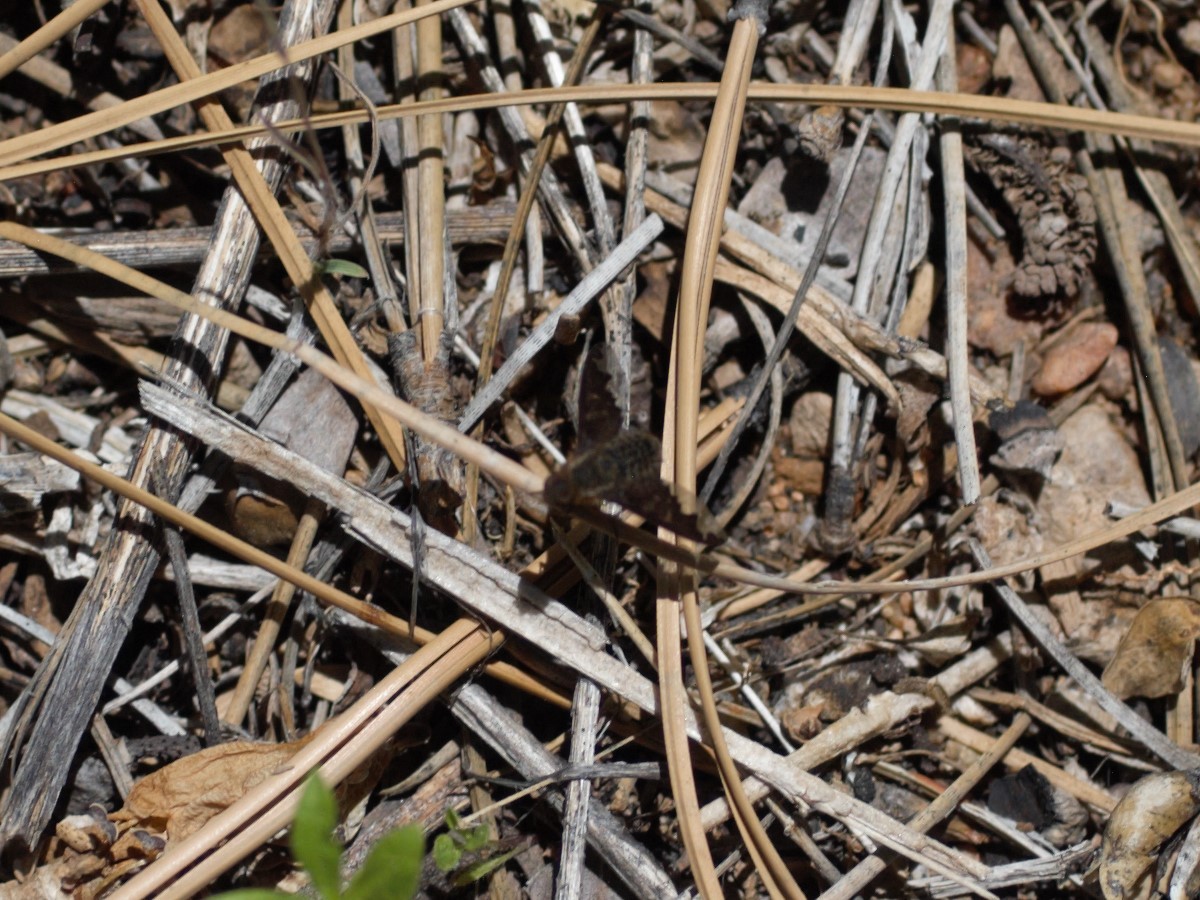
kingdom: Animalia
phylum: Arthropoda
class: Insecta
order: Diptera
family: Bombyliidae
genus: Hemipenthes
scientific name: Hemipenthes
